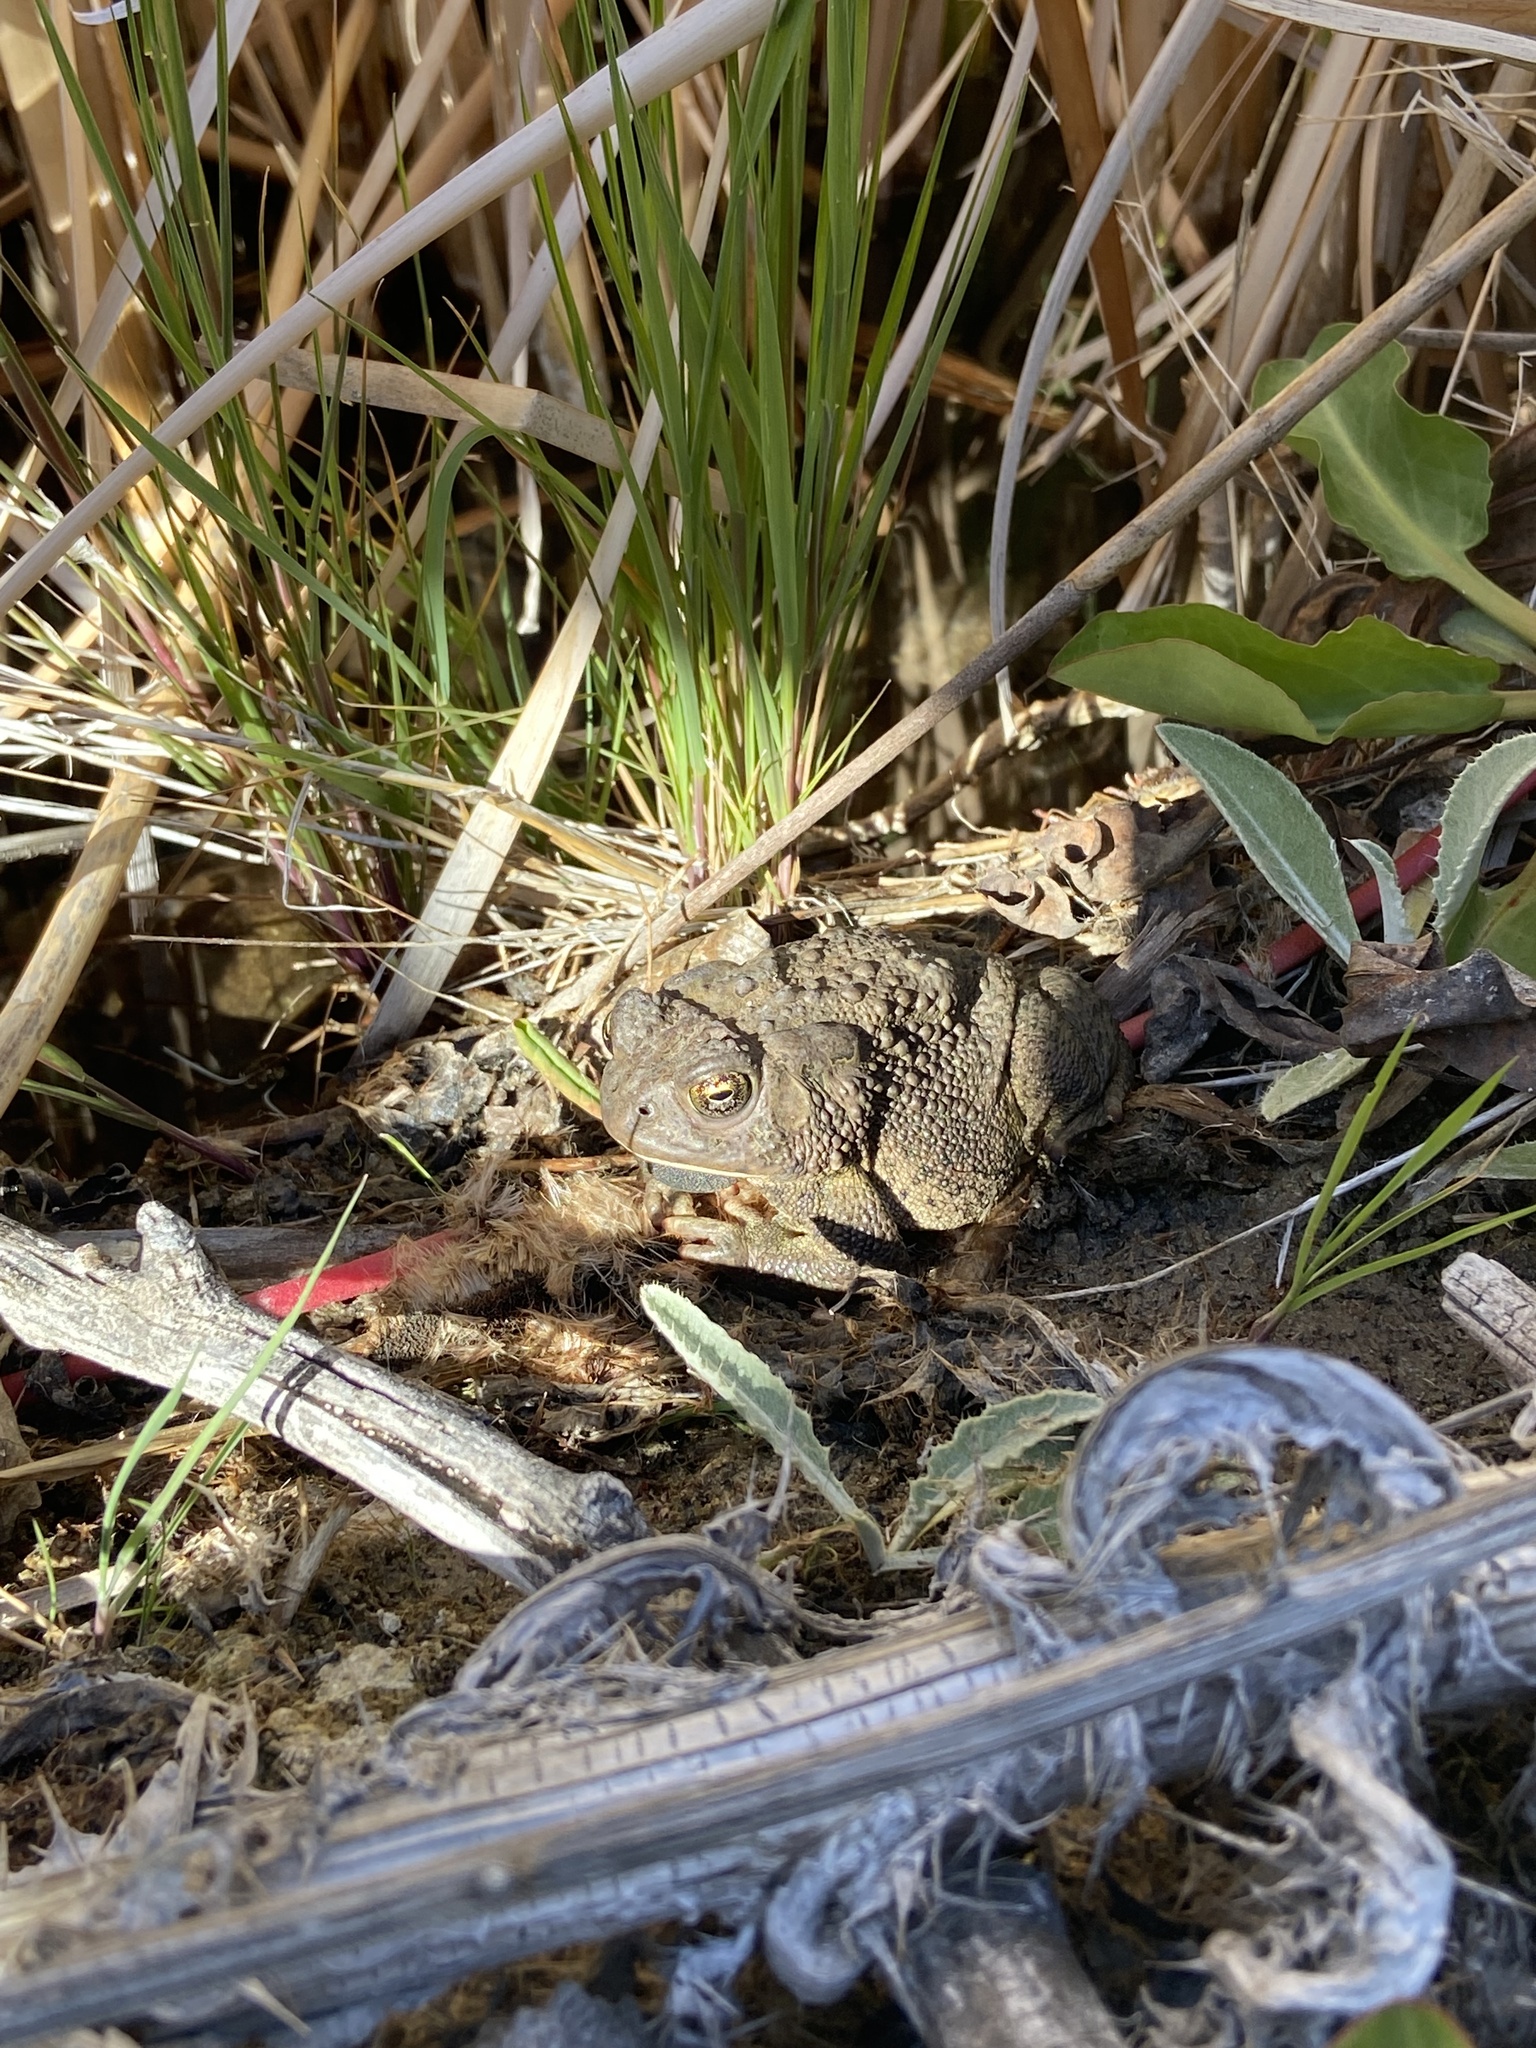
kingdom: Animalia
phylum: Chordata
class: Amphibia
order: Anura
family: Bufonidae
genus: Anaxyrus
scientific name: Anaxyrus woodhousii
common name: Woodhouse's toad
